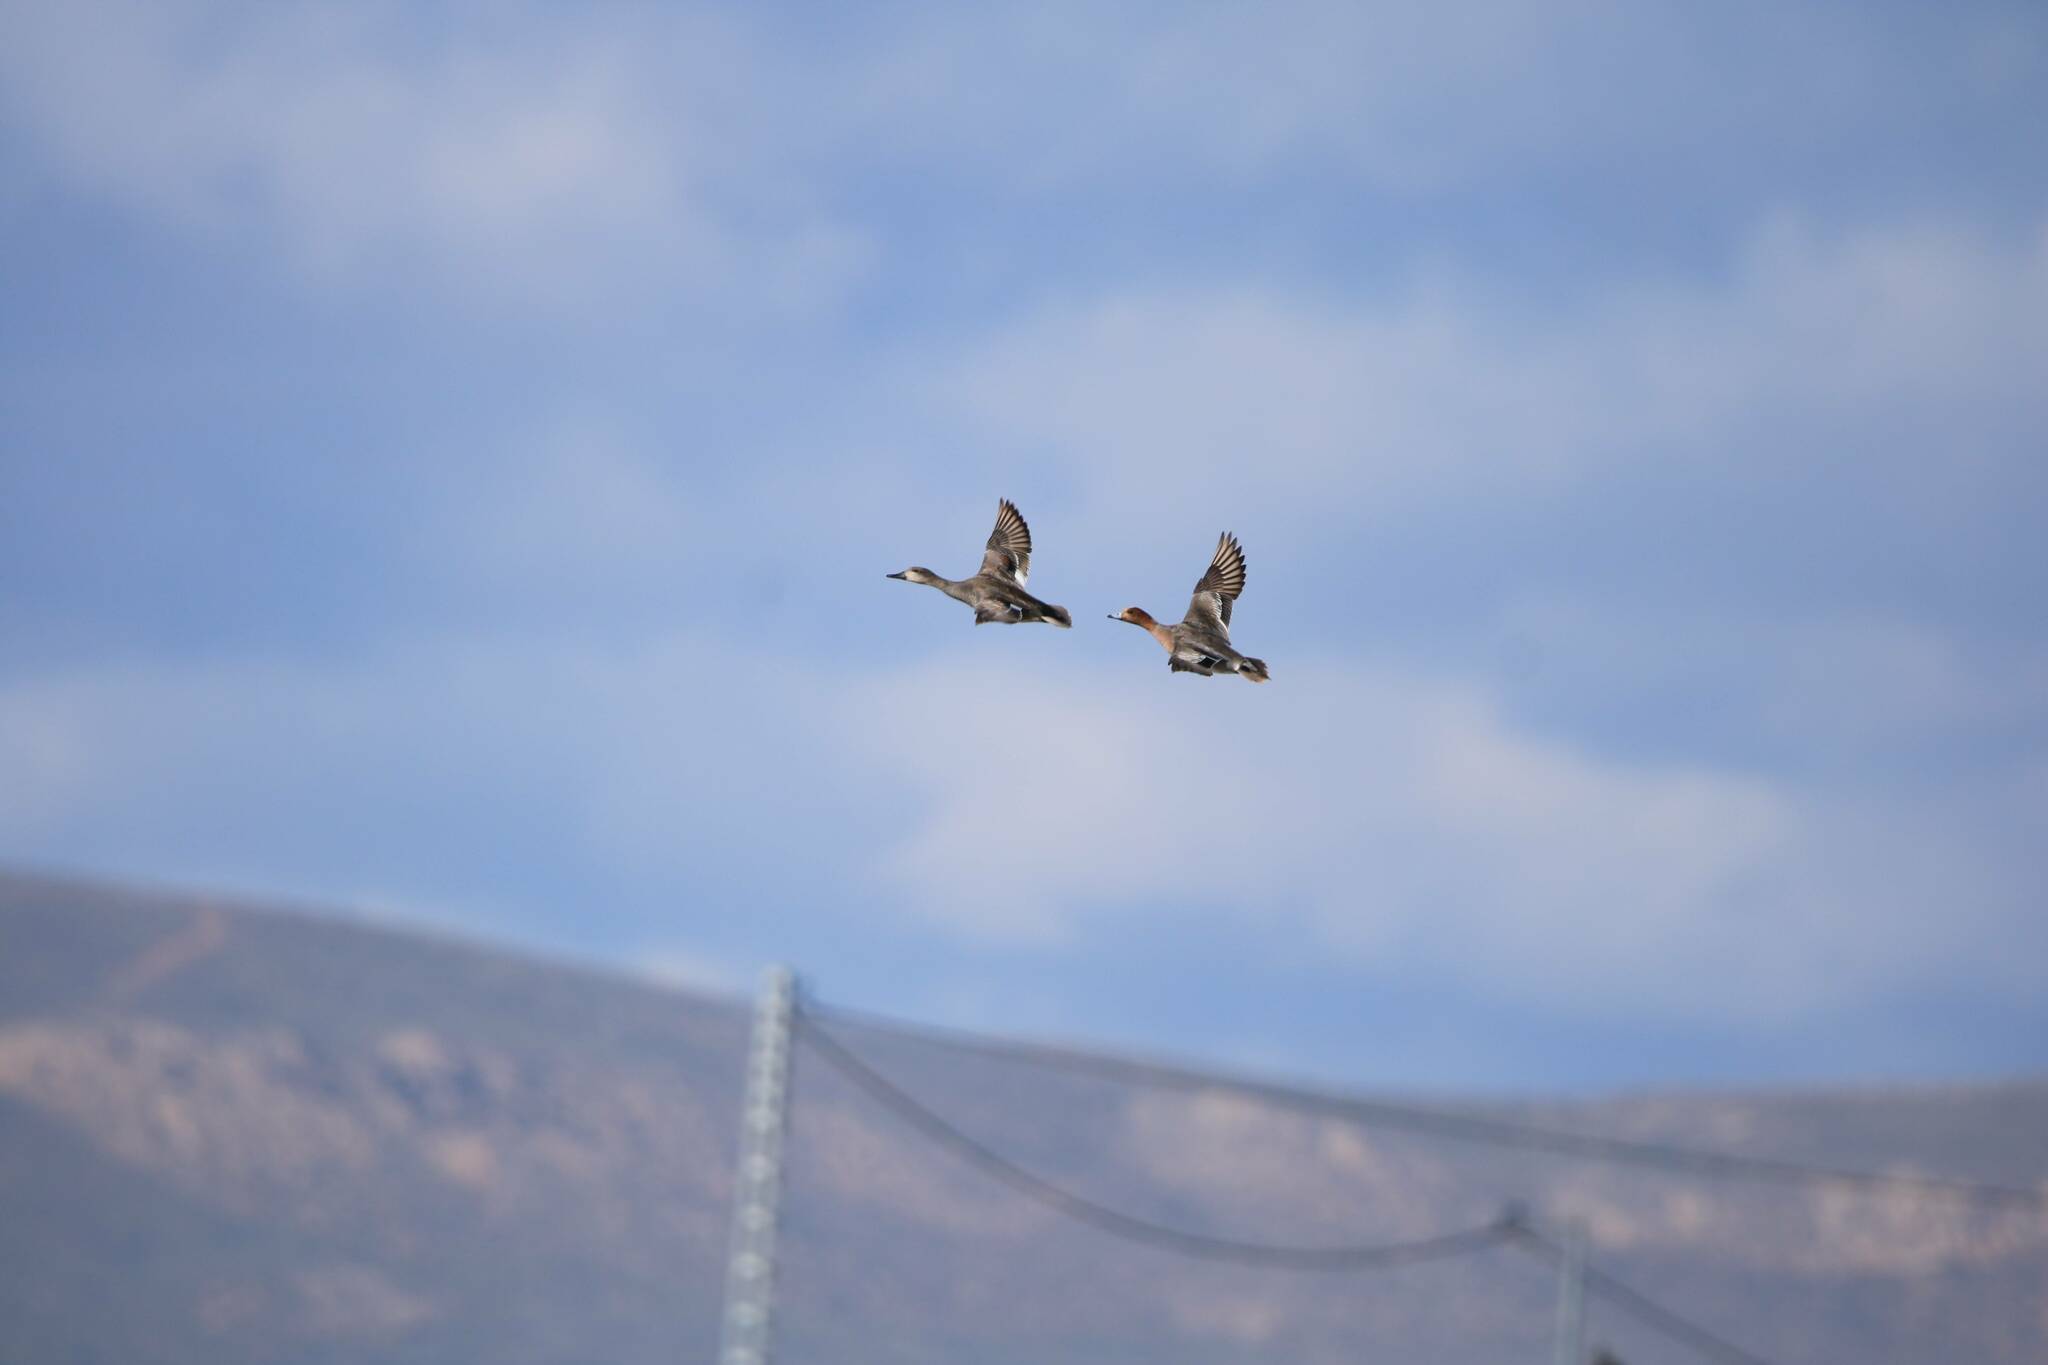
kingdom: Animalia
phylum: Chordata
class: Aves
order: Anseriformes
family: Anatidae
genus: Mareca
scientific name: Mareca penelope
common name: Eurasian wigeon
